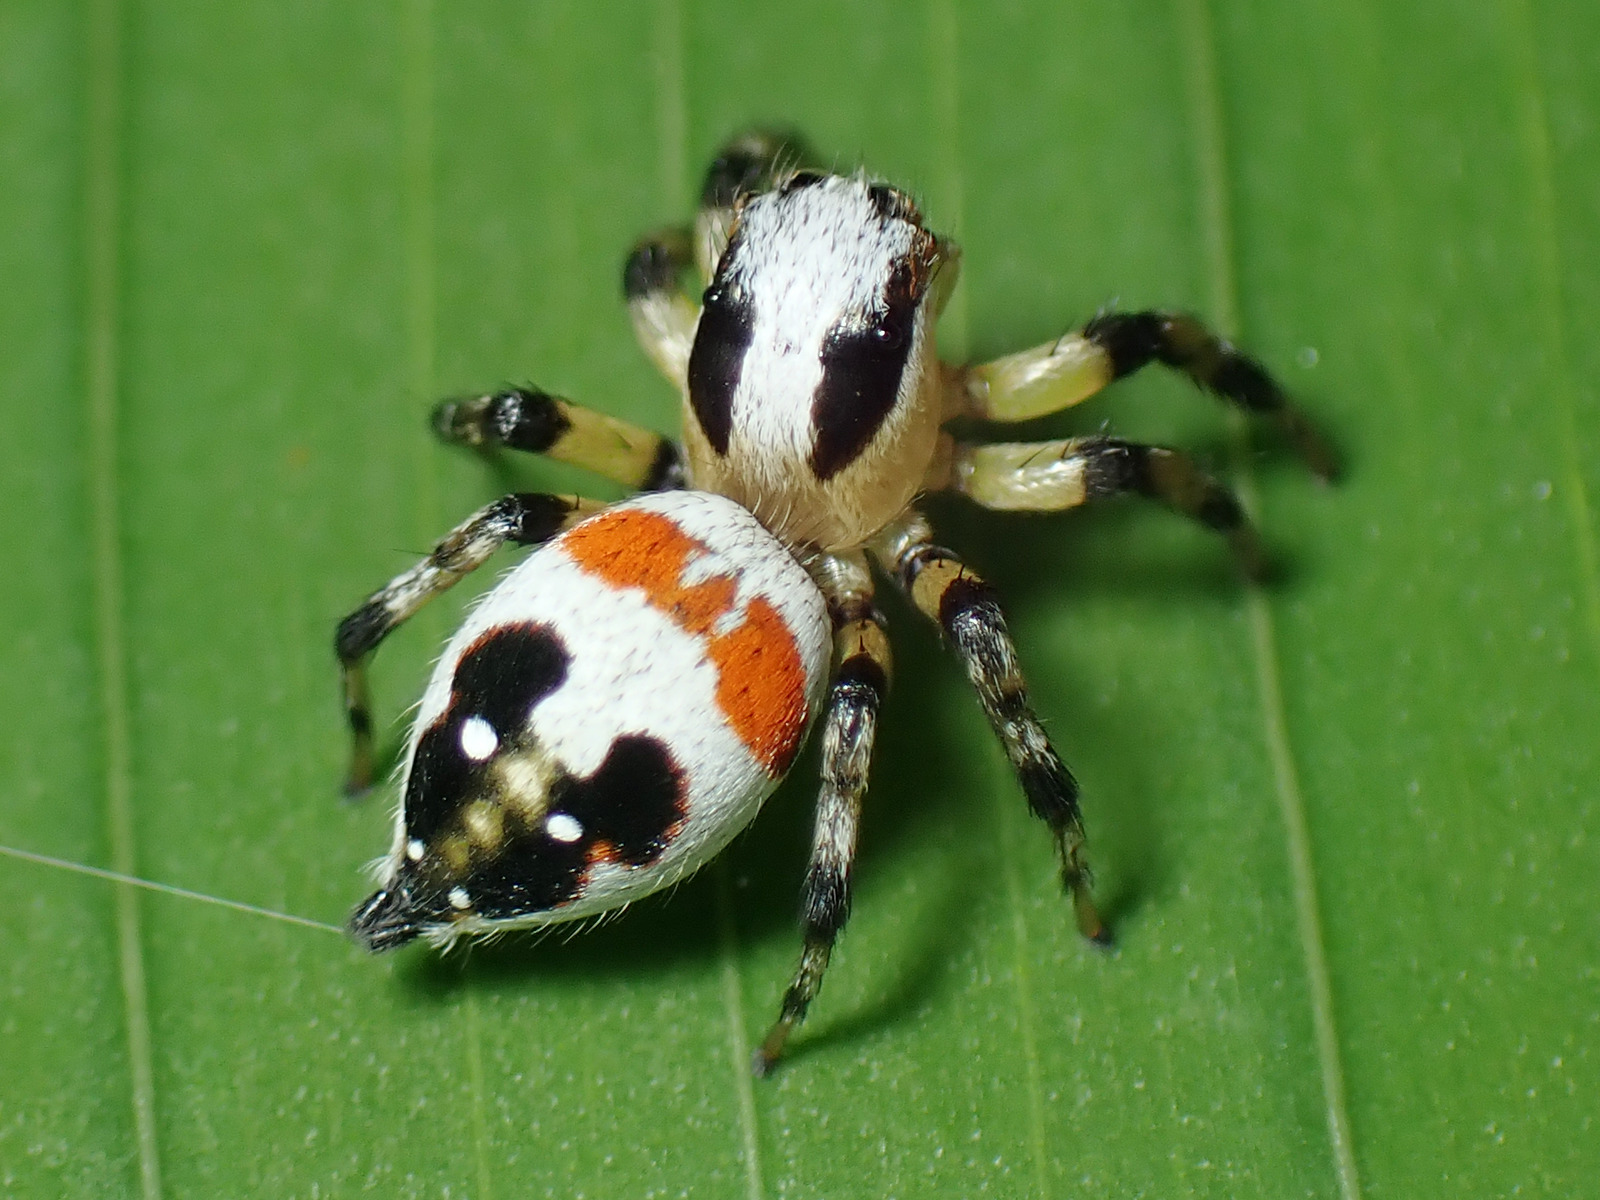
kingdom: Animalia
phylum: Arthropoda
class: Arachnida
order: Araneae
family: Salticidae
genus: Nycerella
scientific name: Nycerella delecta
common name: Jumping spiders
